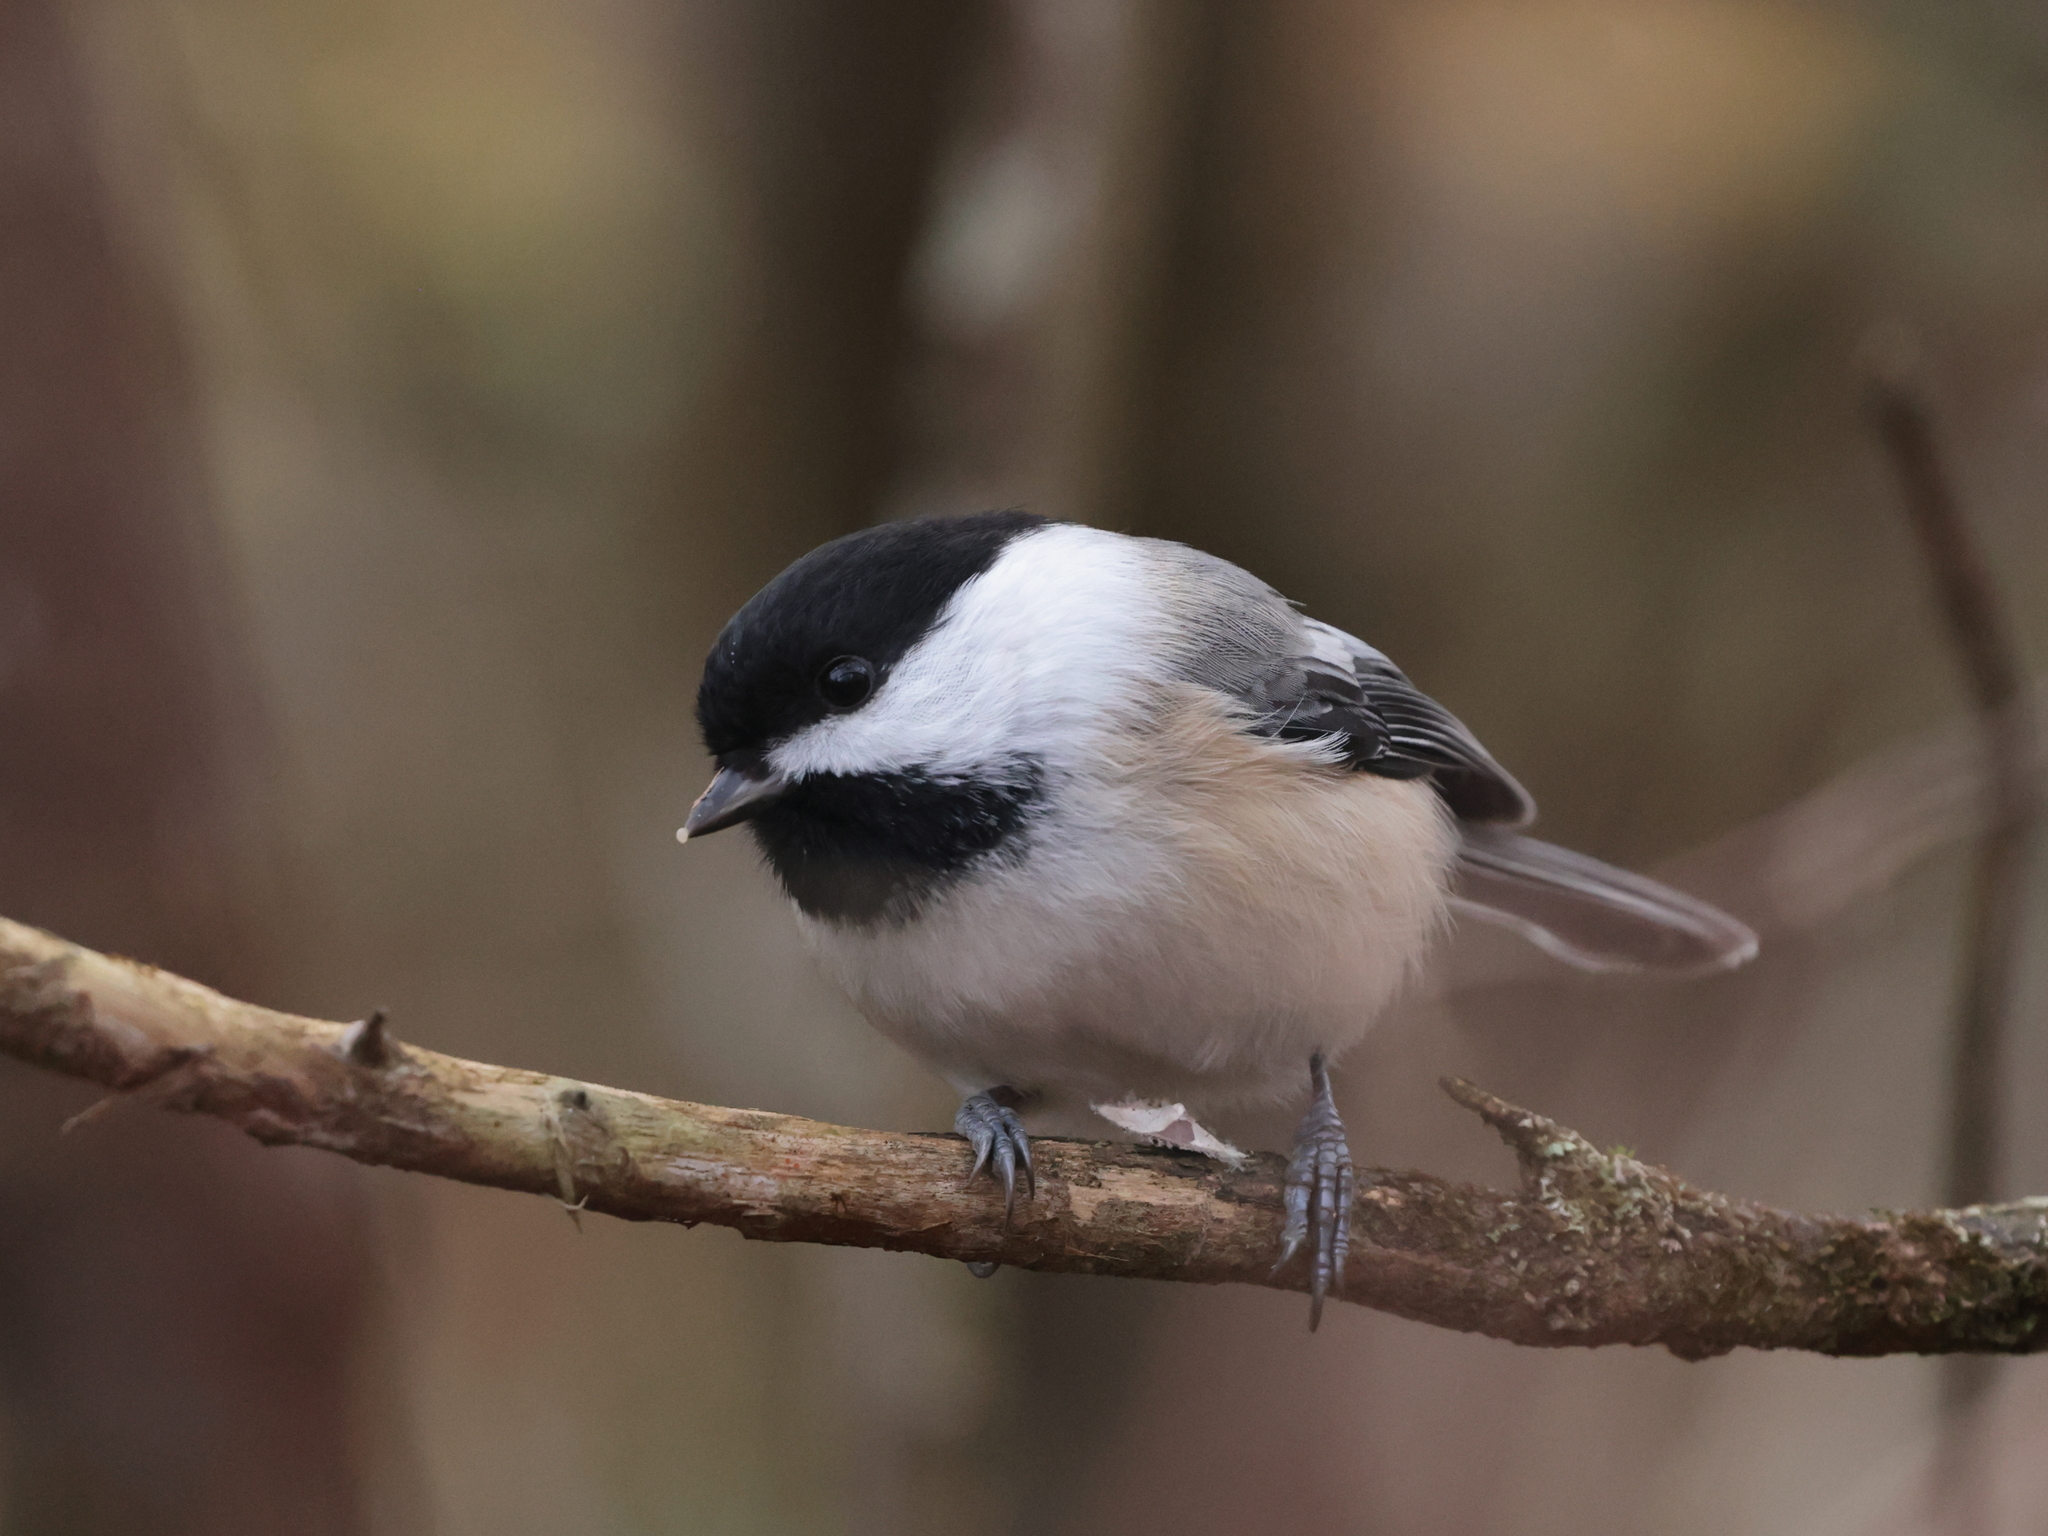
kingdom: Animalia
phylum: Chordata
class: Aves
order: Passeriformes
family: Paridae
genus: Poecile
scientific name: Poecile atricapillus
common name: Black-capped chickadee
